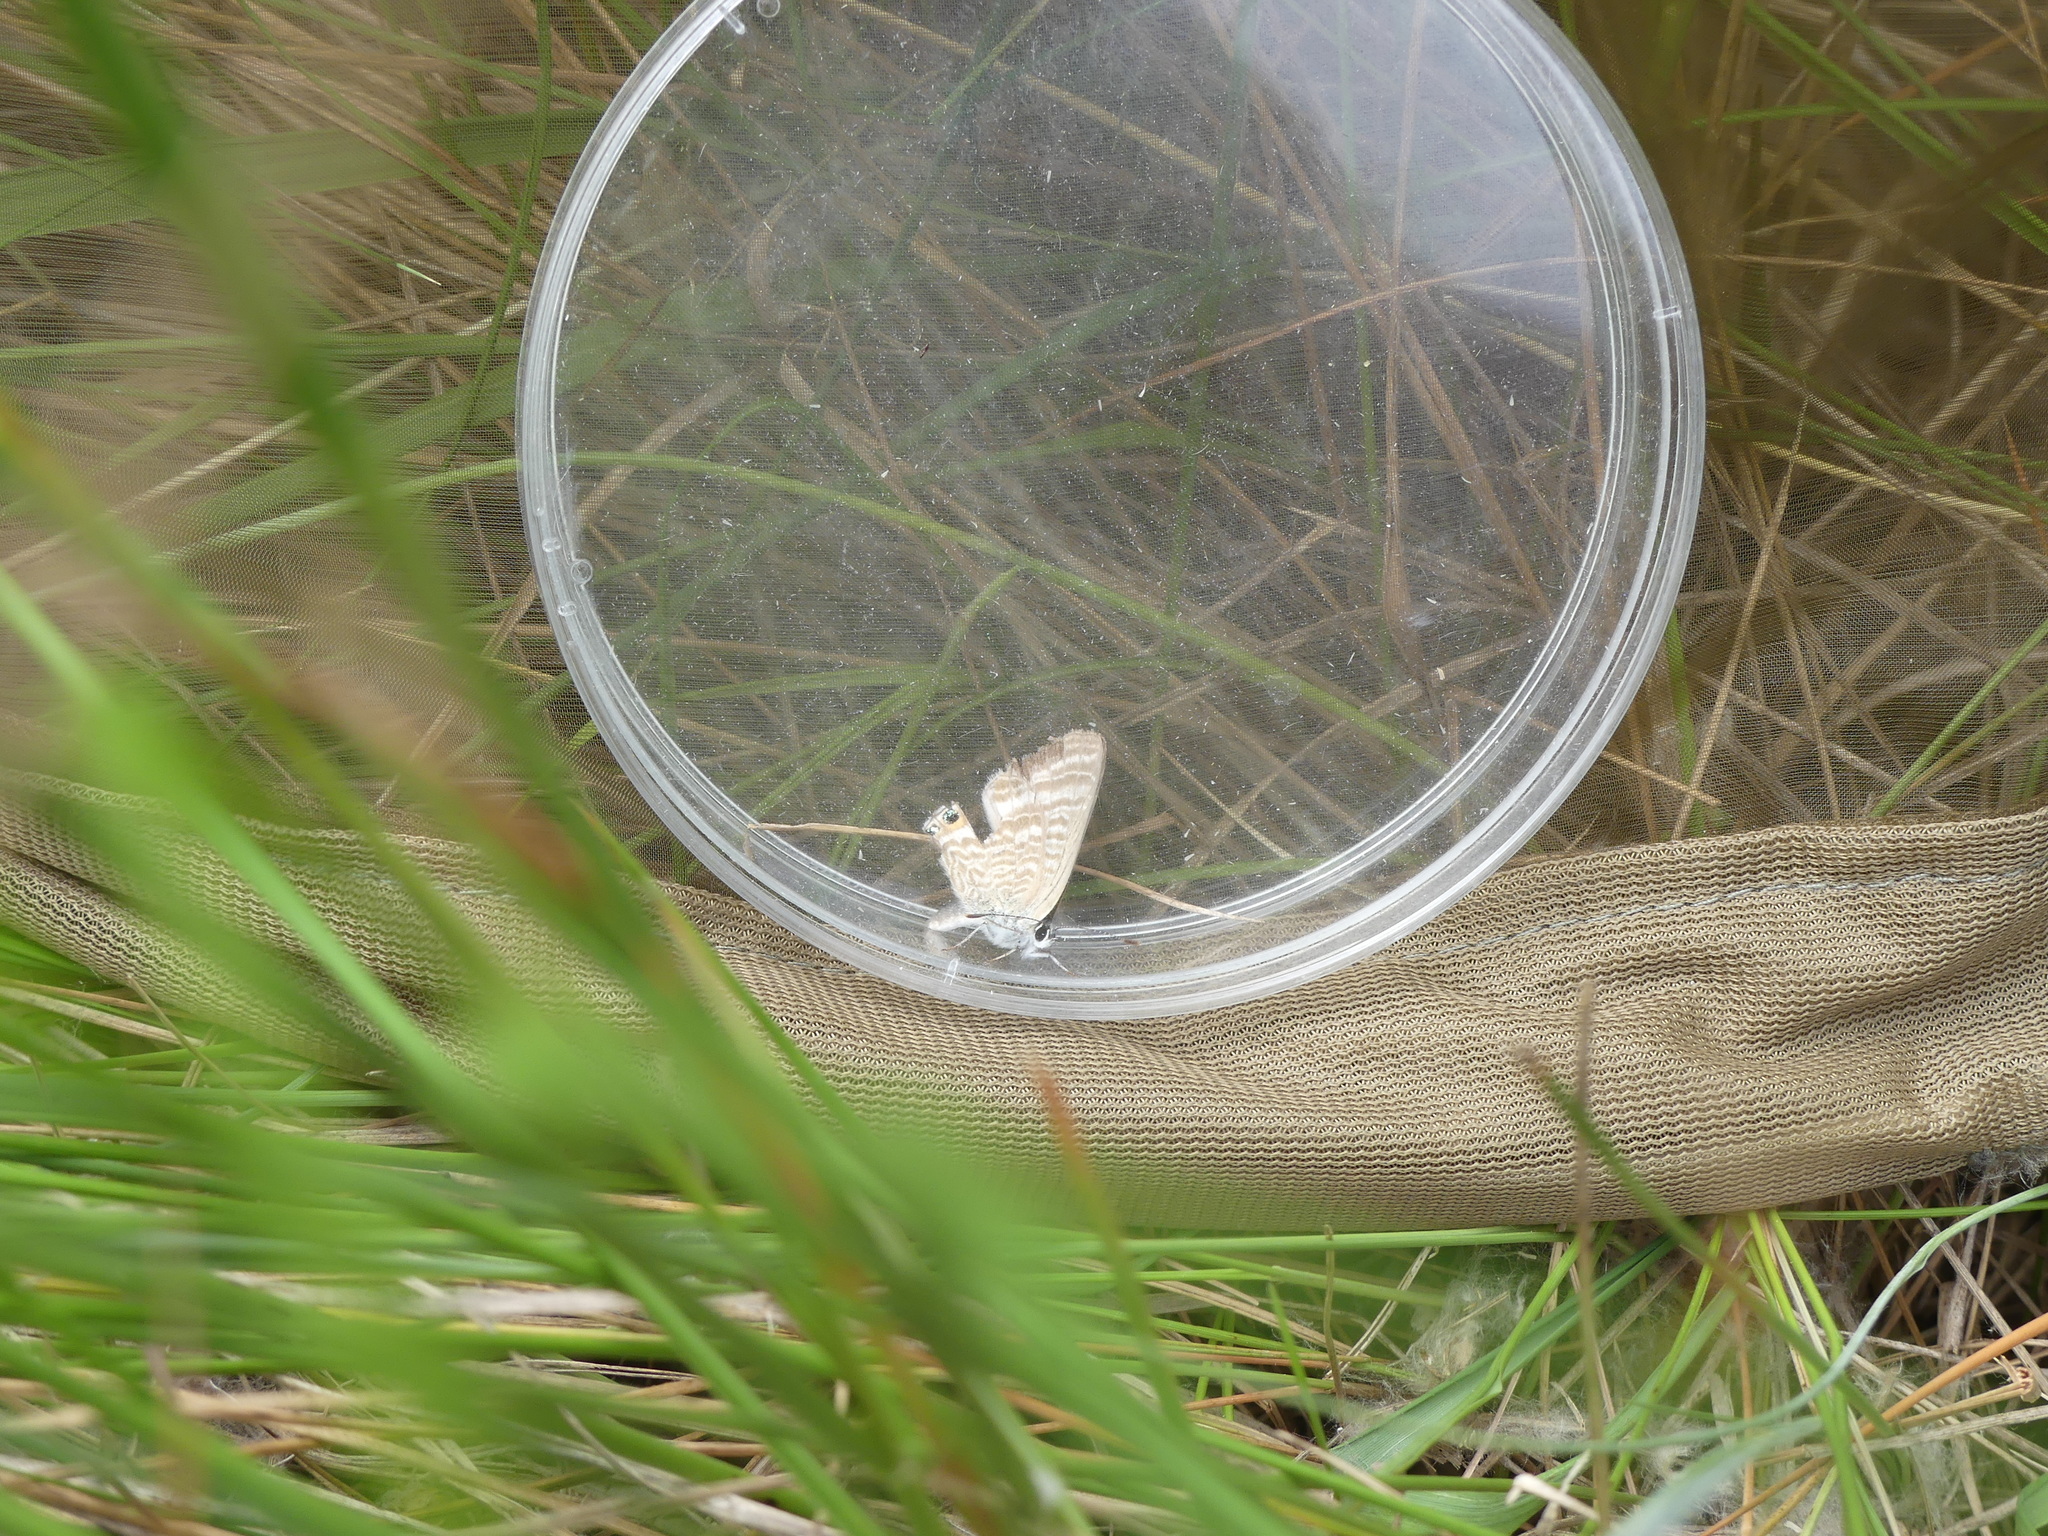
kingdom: Animalia
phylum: Arthropoda
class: Insecta
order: Lepidoptera
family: Lycaenidae
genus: Lampides
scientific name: Lampides boeticus
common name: Long-tailed blue
